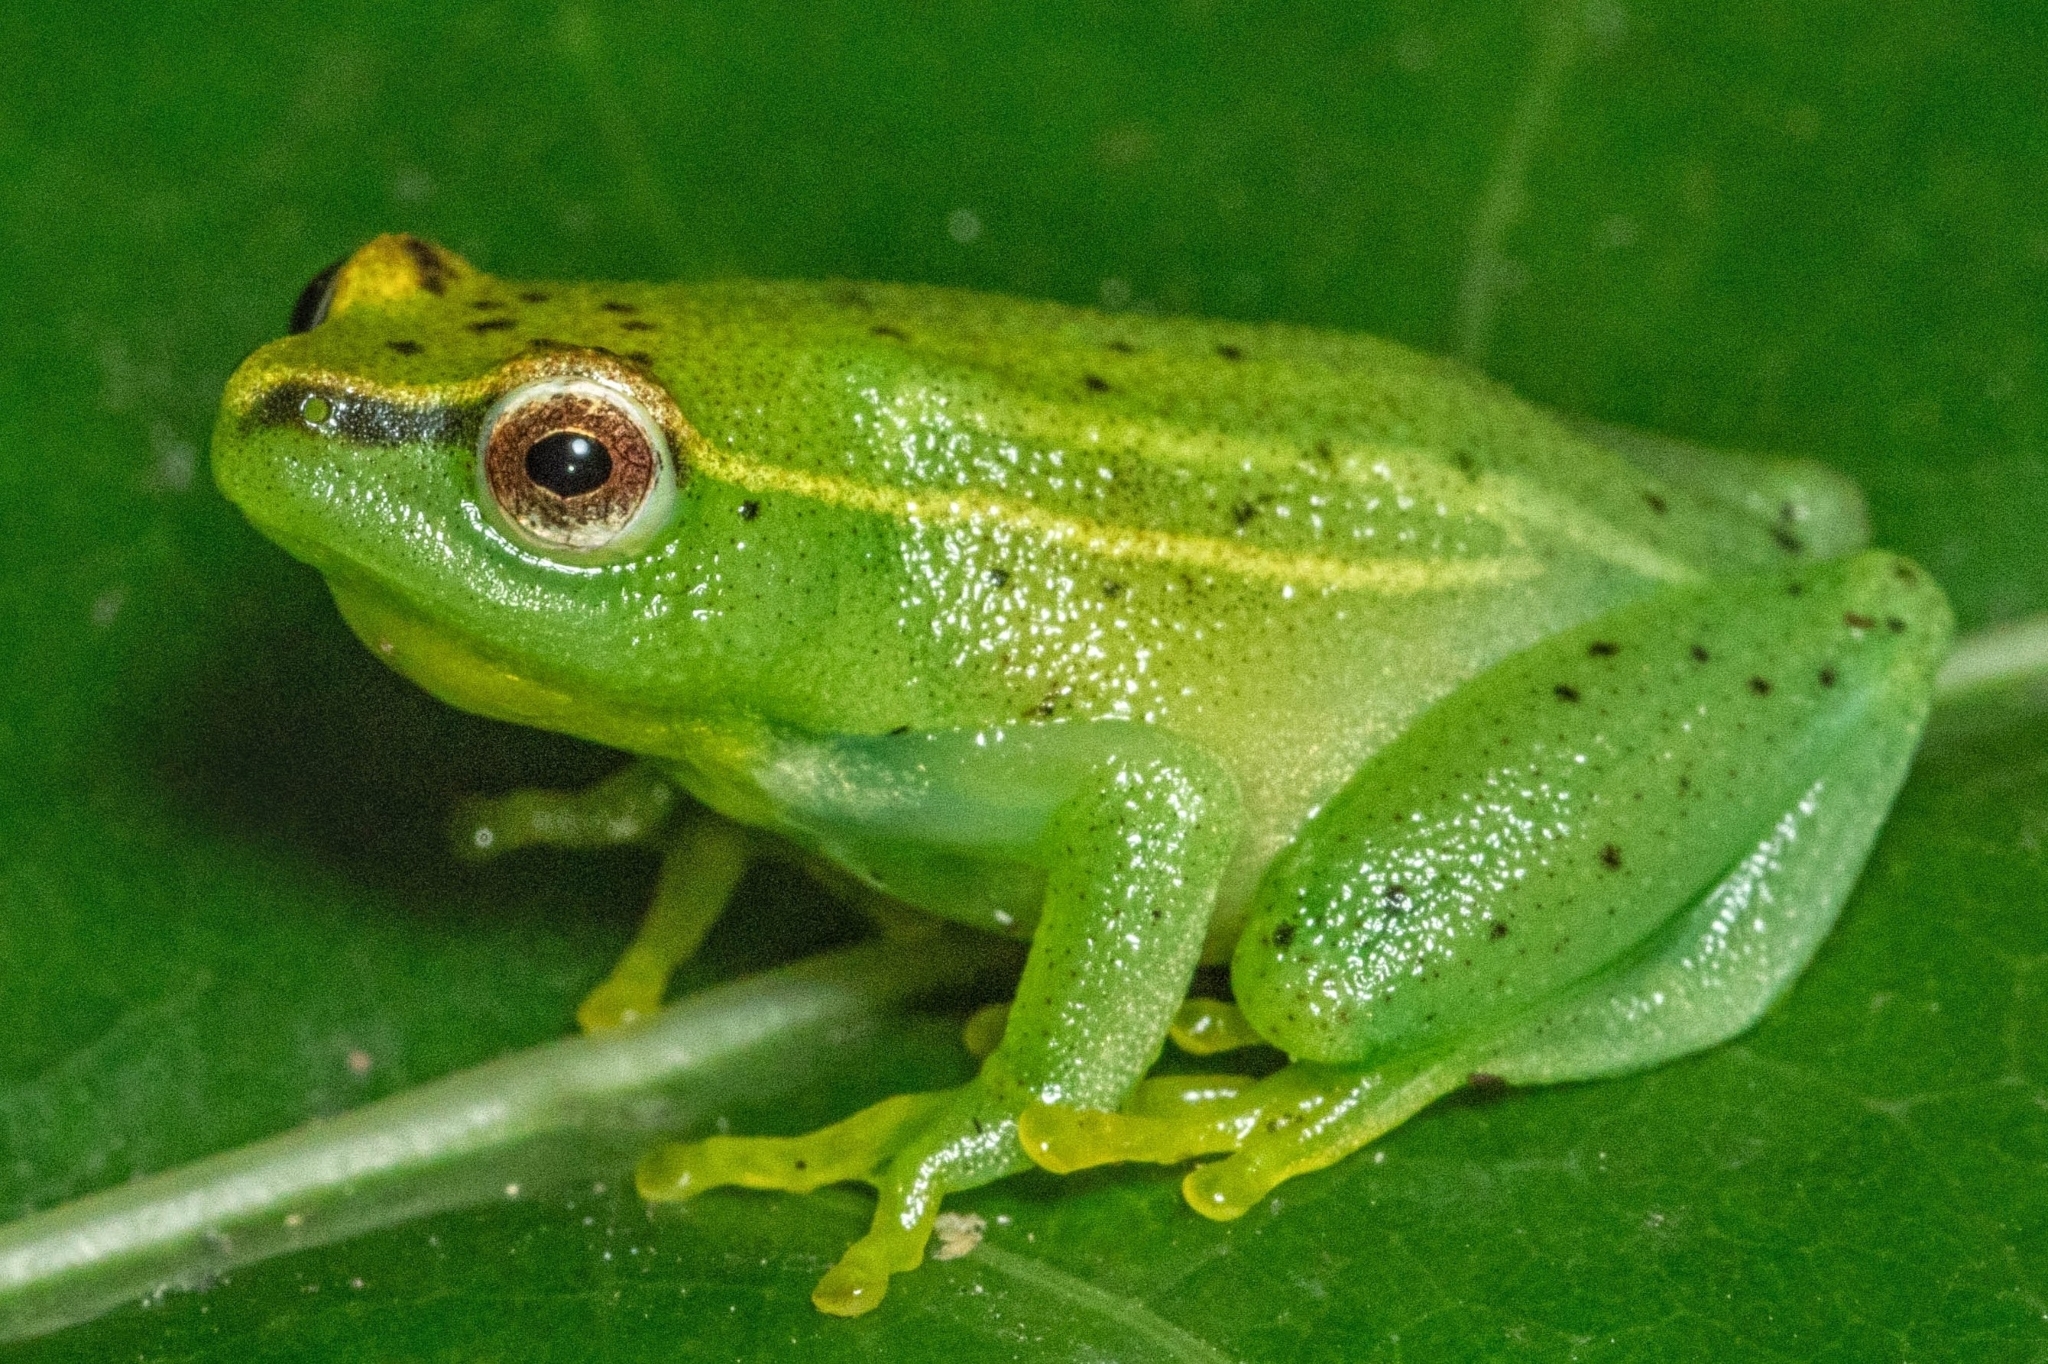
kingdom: Animalia
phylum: Chordata
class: Amphibia
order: Anura
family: Hyperoliidae
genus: Hyperolius
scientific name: Hyperolius pusillus
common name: Water lily reed frog
